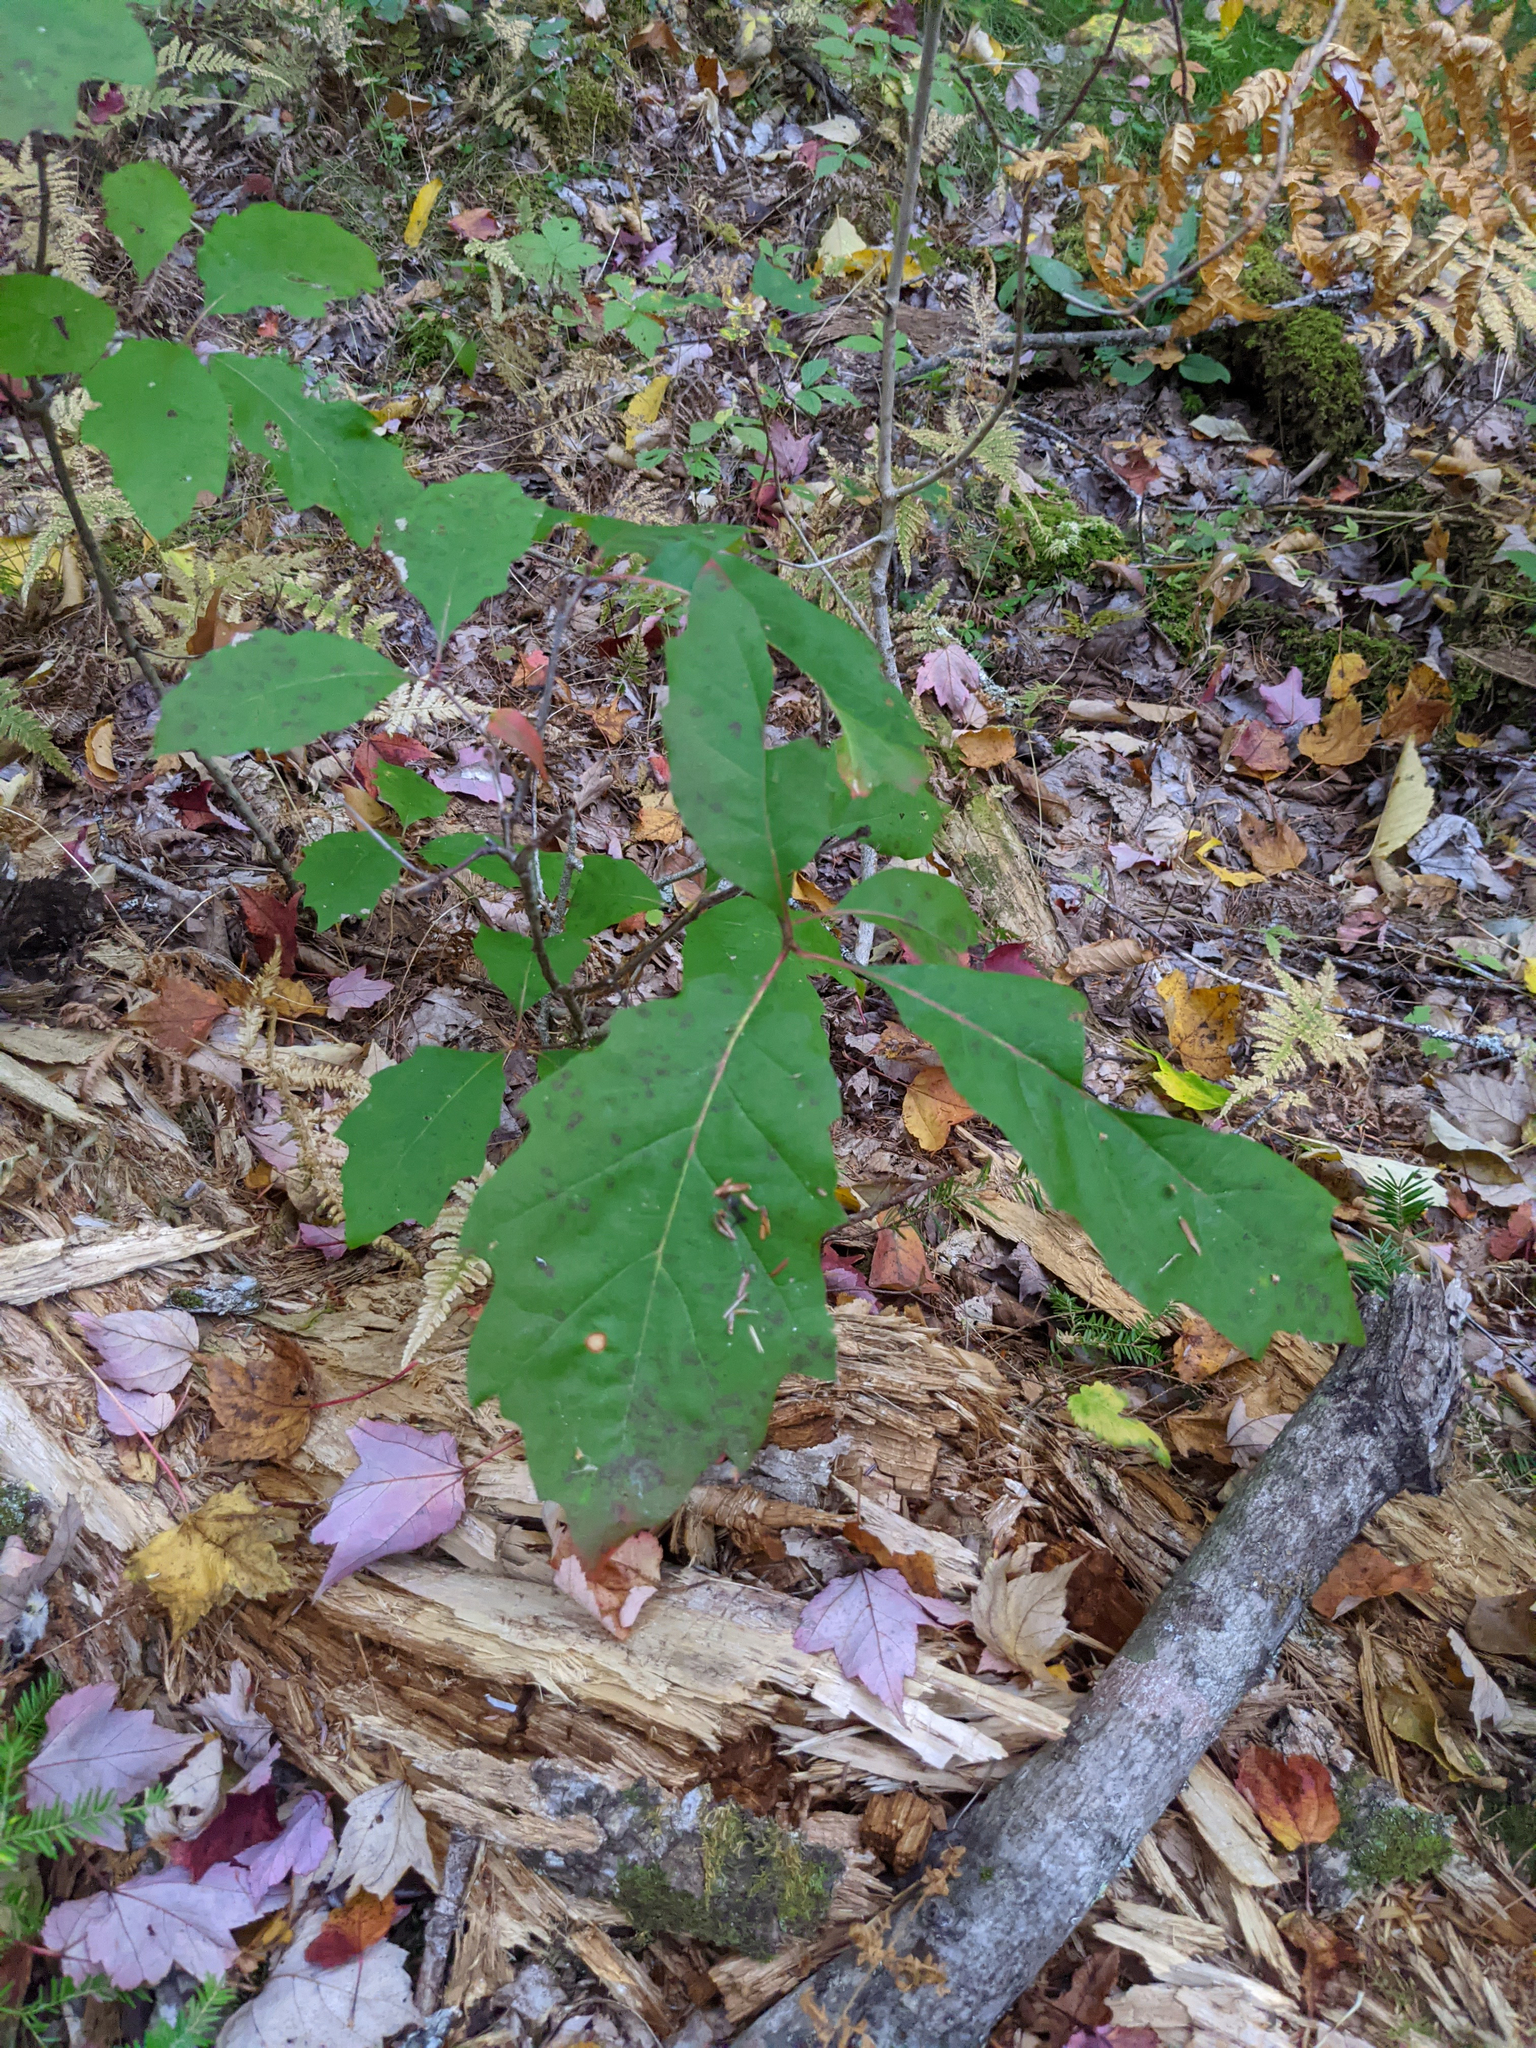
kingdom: Plantae
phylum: Tracheophyta
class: Magnoliopsida
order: Fagales
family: Fagaceae
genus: Quercus
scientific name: Quercus rubra
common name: Red oak
